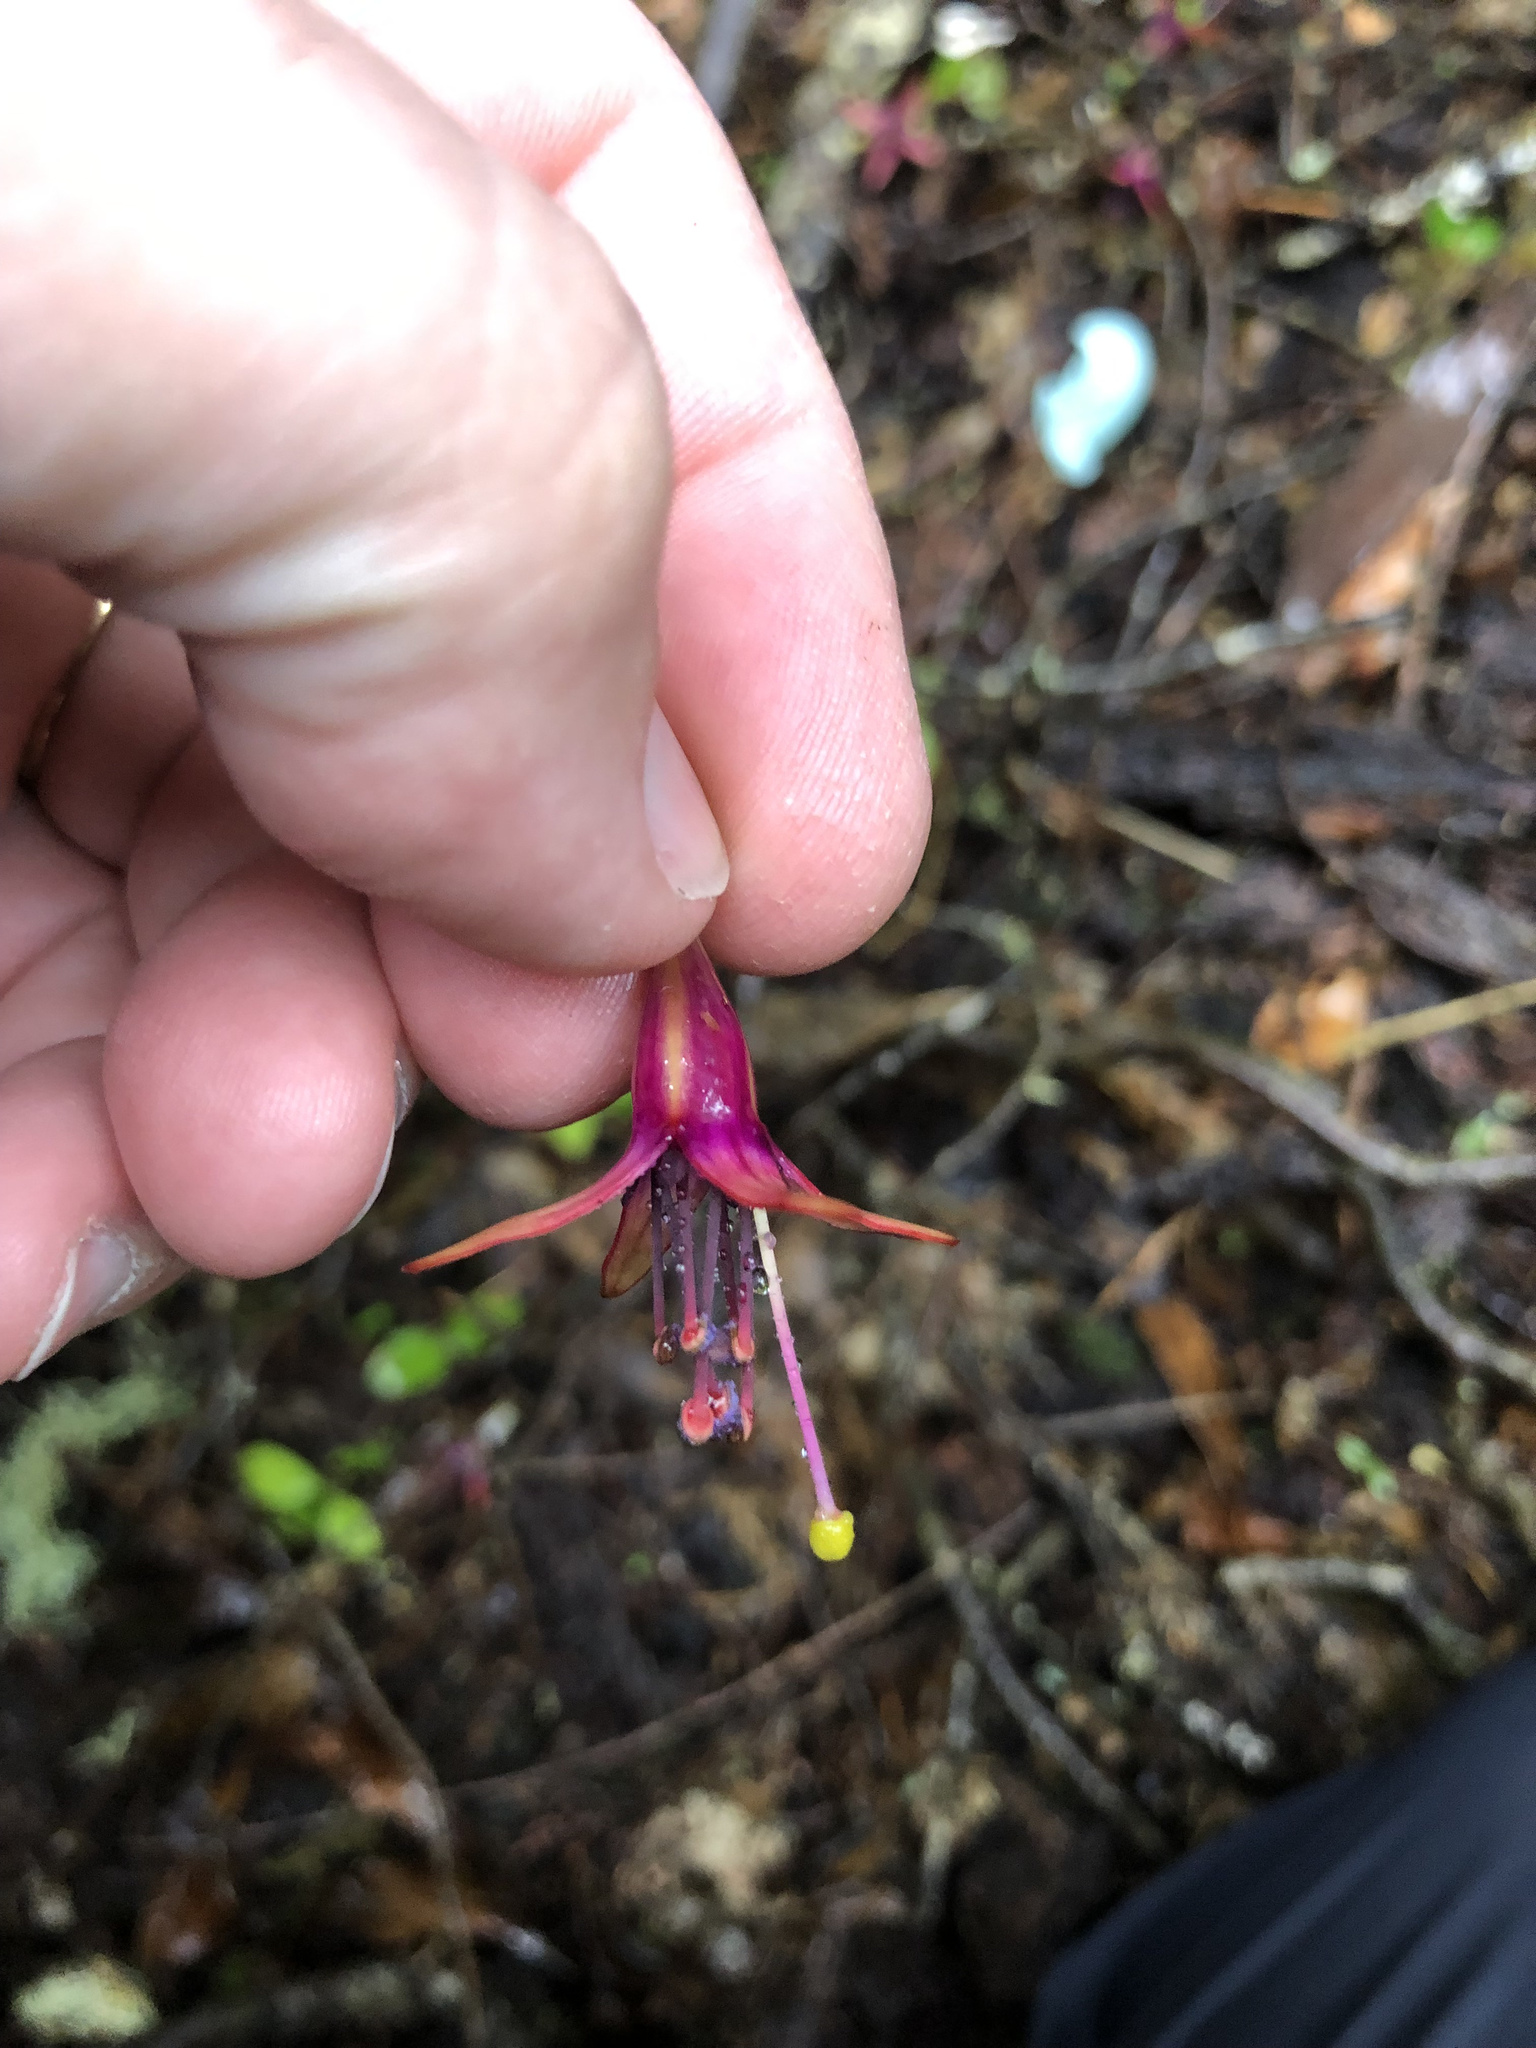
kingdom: Plantae
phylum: Tracheophyta
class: Magnoliopsida
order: Myrtales
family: Onagraceae
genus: Fuchsia
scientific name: Fuchsia excorticata
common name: Tree fuchsia
